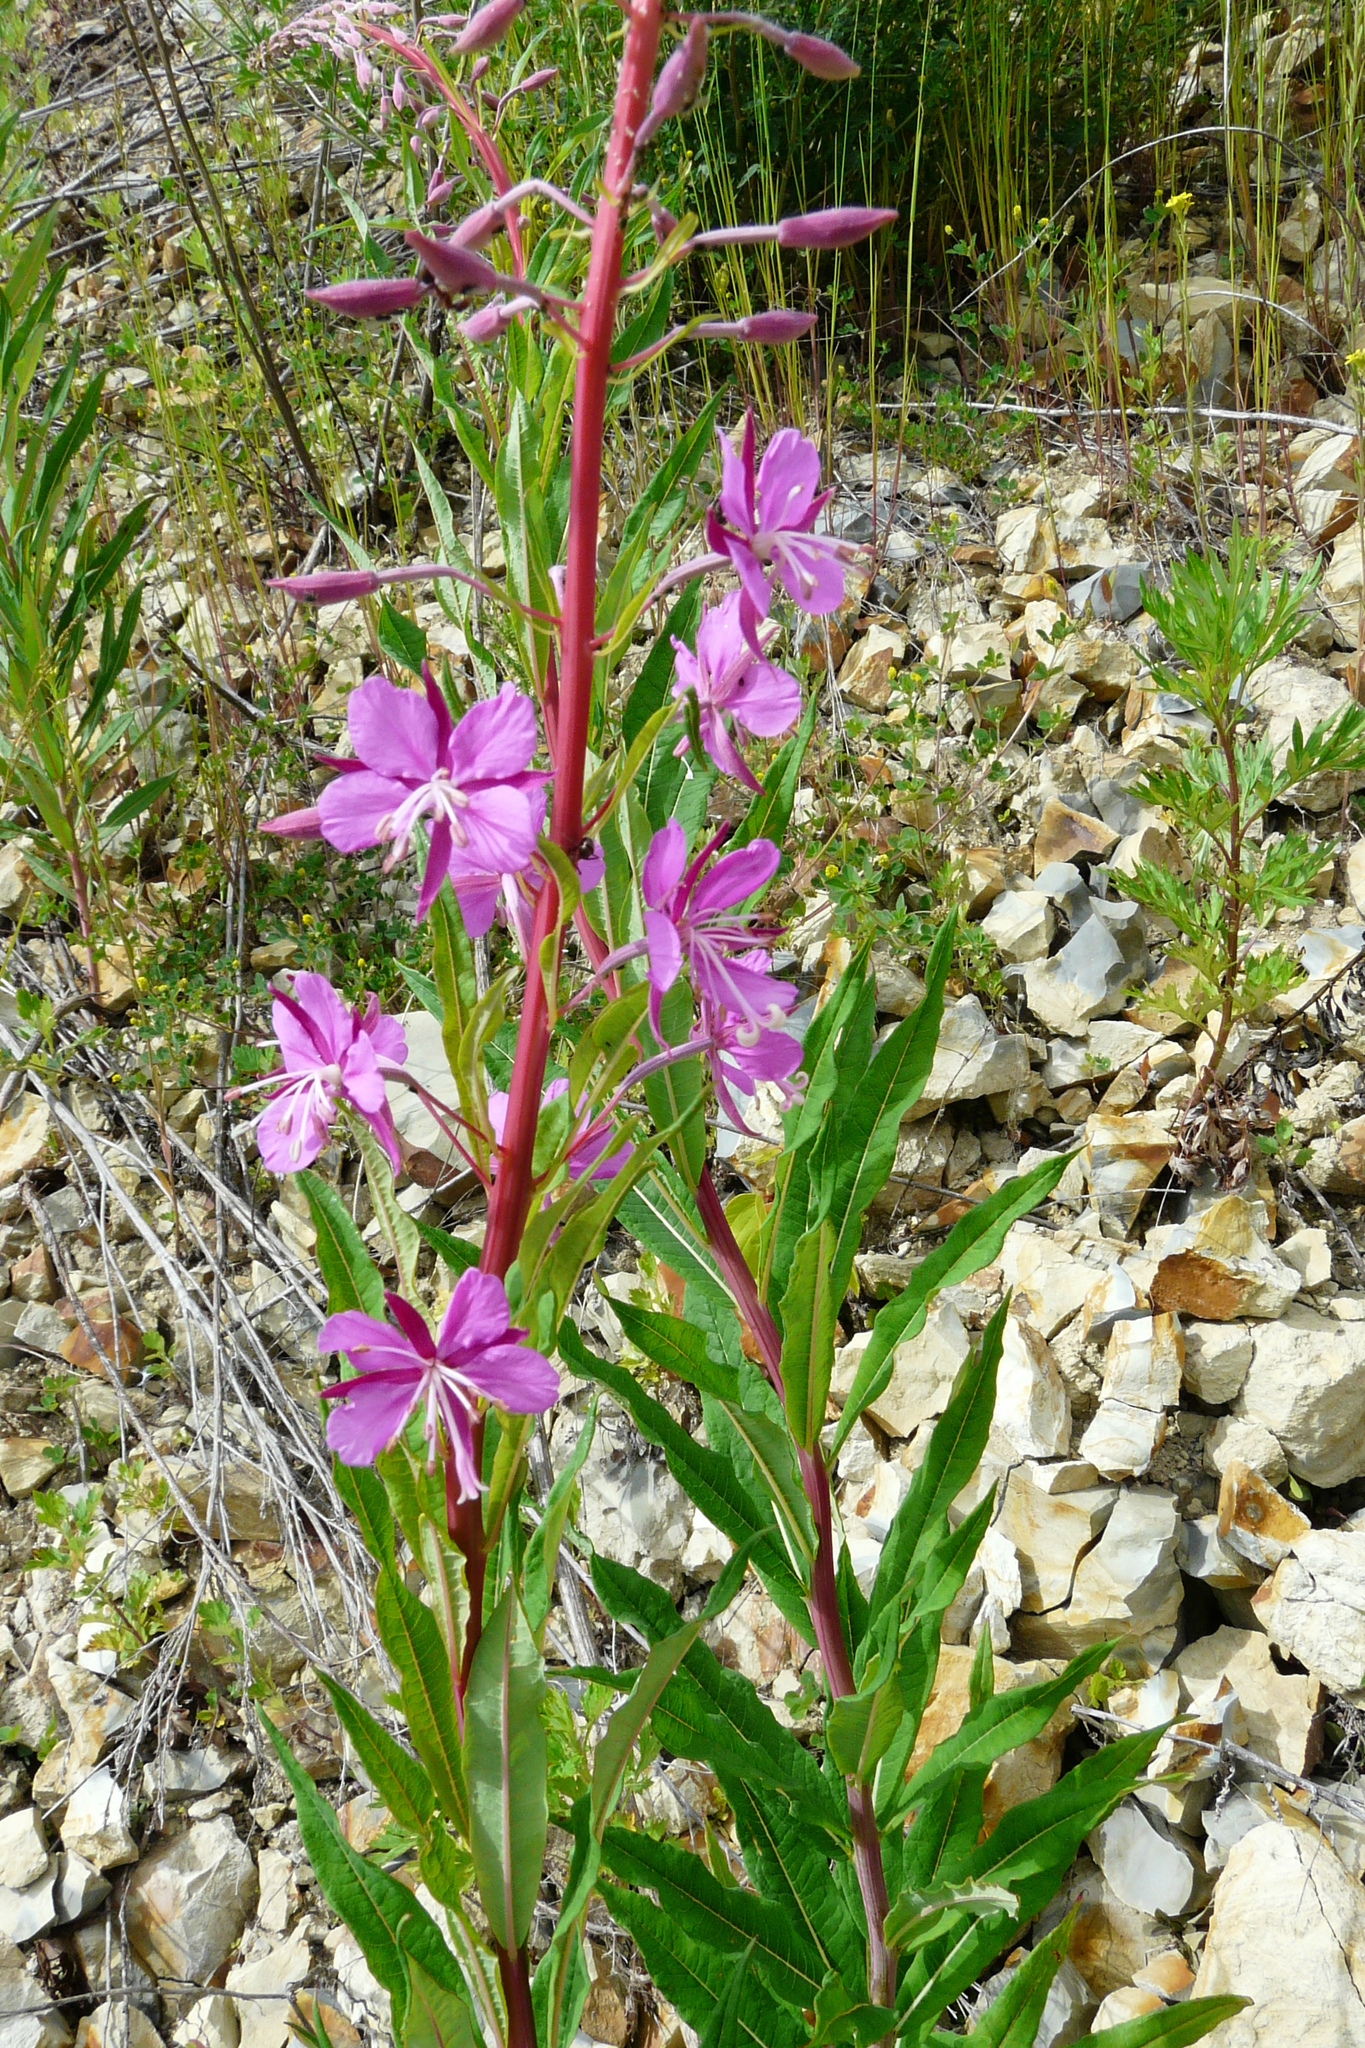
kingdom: Plantae
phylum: Tracheophyta
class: Magnoliopsida
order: Myrtales
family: Onagraceae
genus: Chamaenerion
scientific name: Chamaenerion angustifolium
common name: Fireweed
